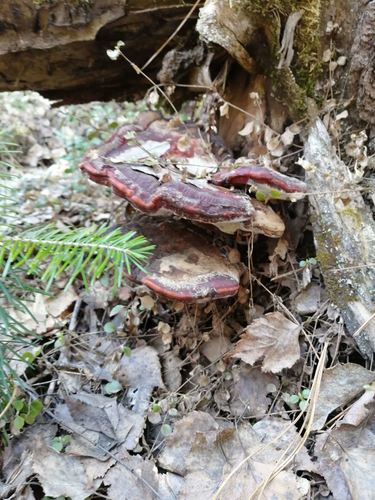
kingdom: Fungi
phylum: Basidiomycota
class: Agaricomycetes
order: Polyporales
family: Polyporaceae
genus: Ganoderma
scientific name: Ganoderma lucidum
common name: Lacquered bracket
